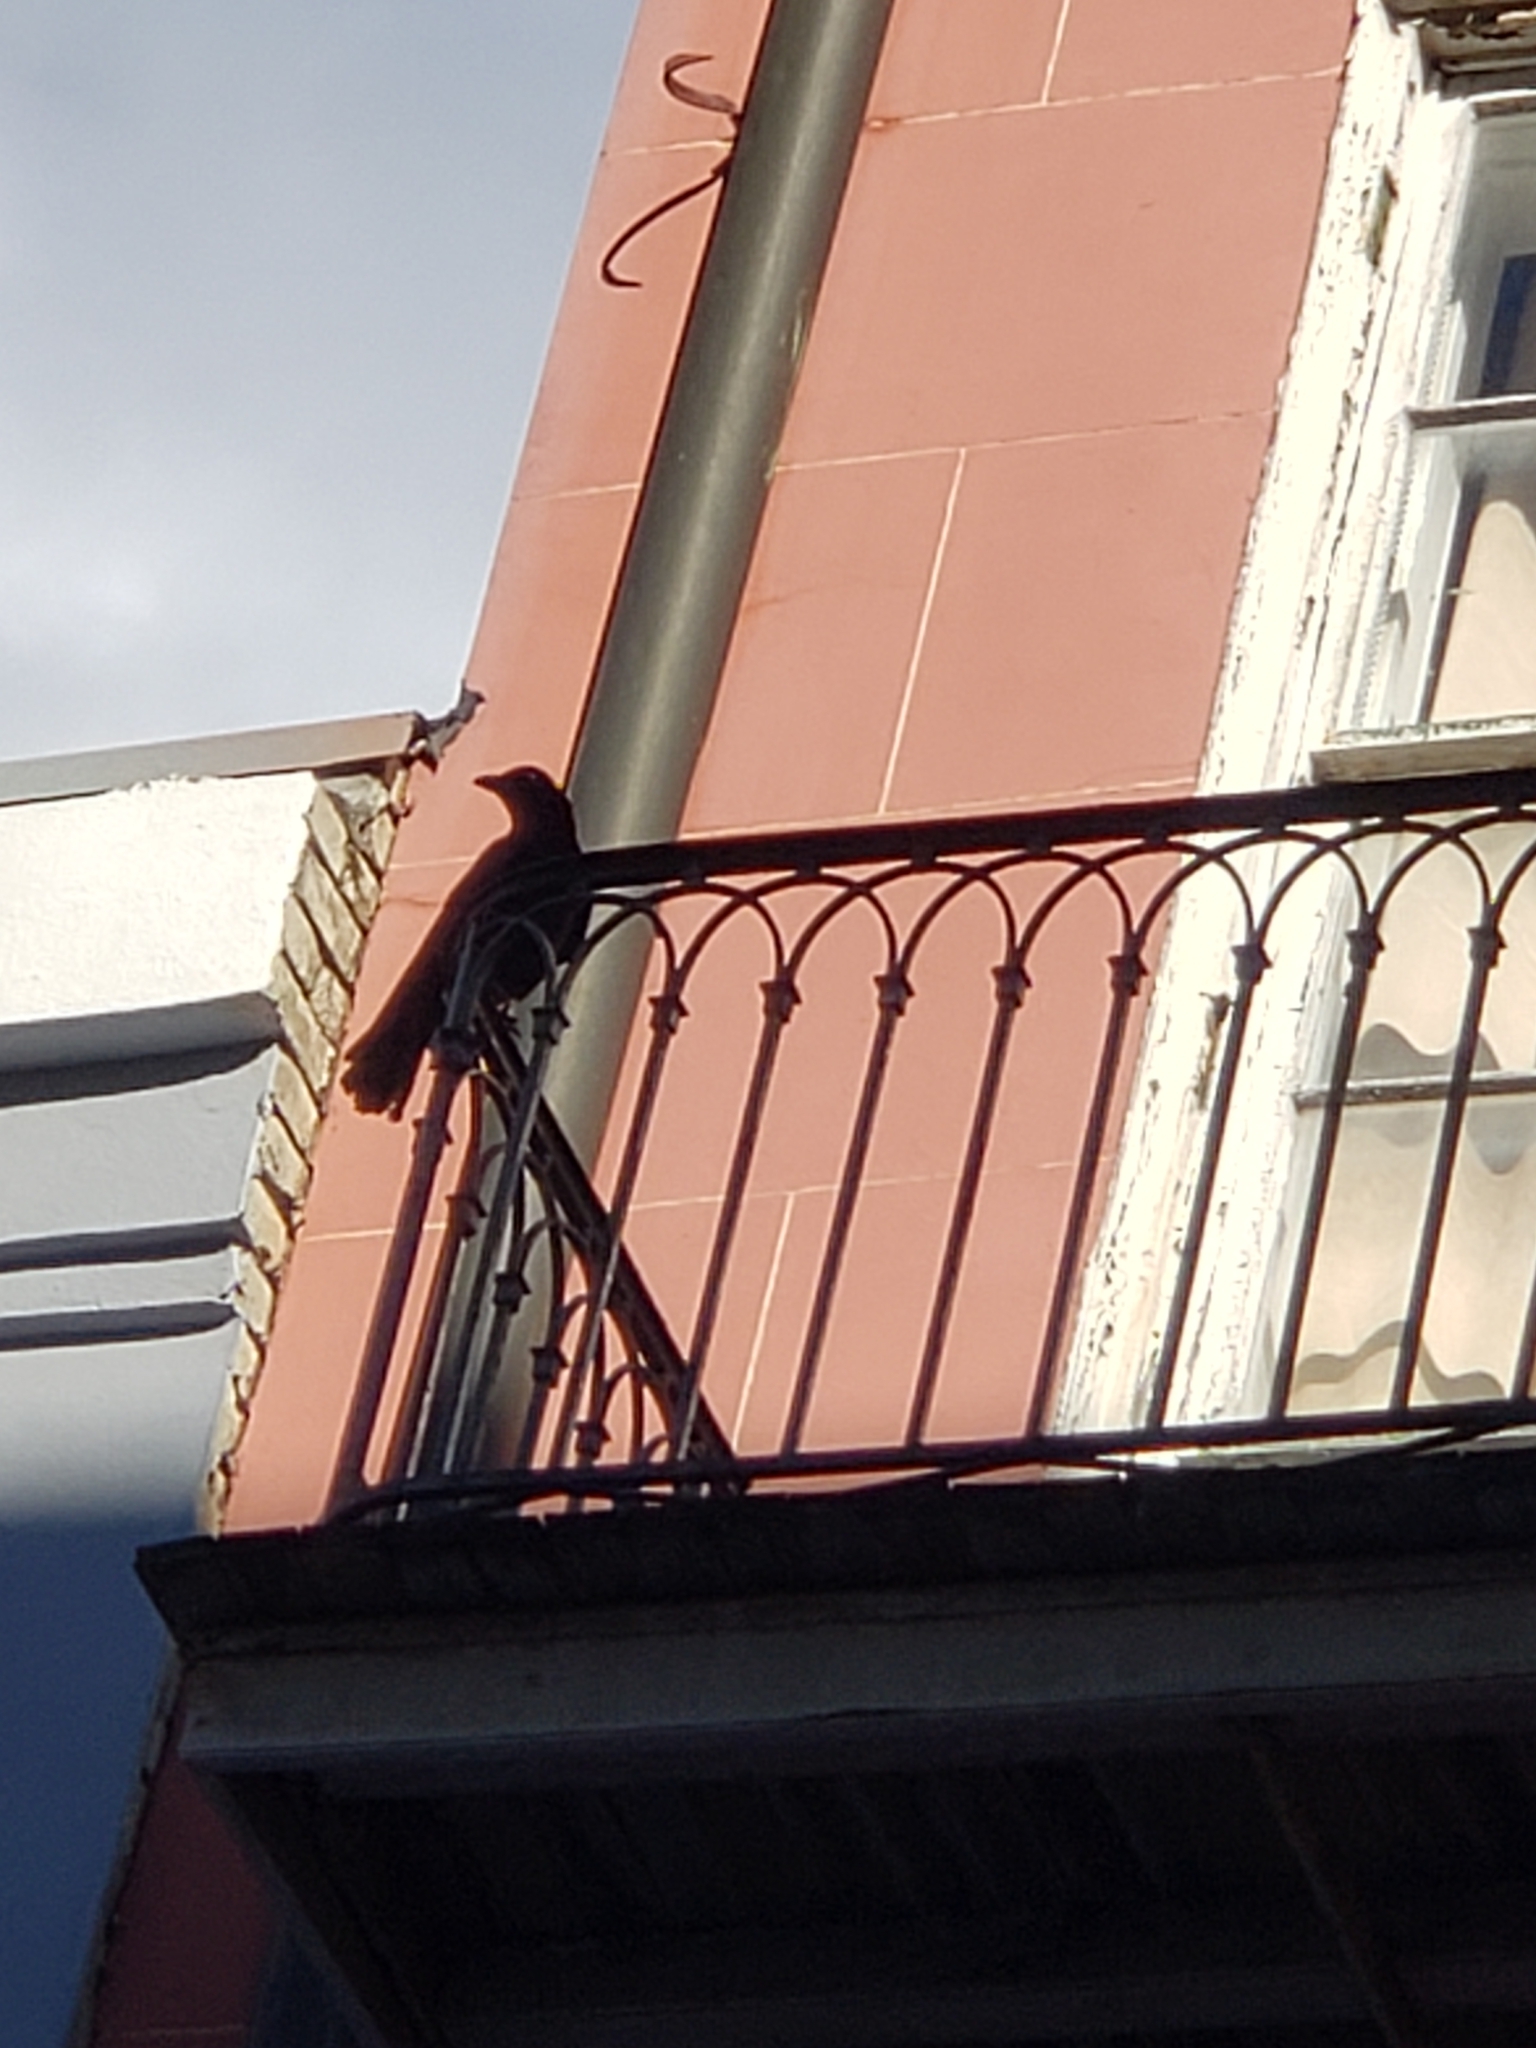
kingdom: Animalia
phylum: Chordata
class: Aves
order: Passeriformes
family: Corvidae
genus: Corvus
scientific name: Corvus
